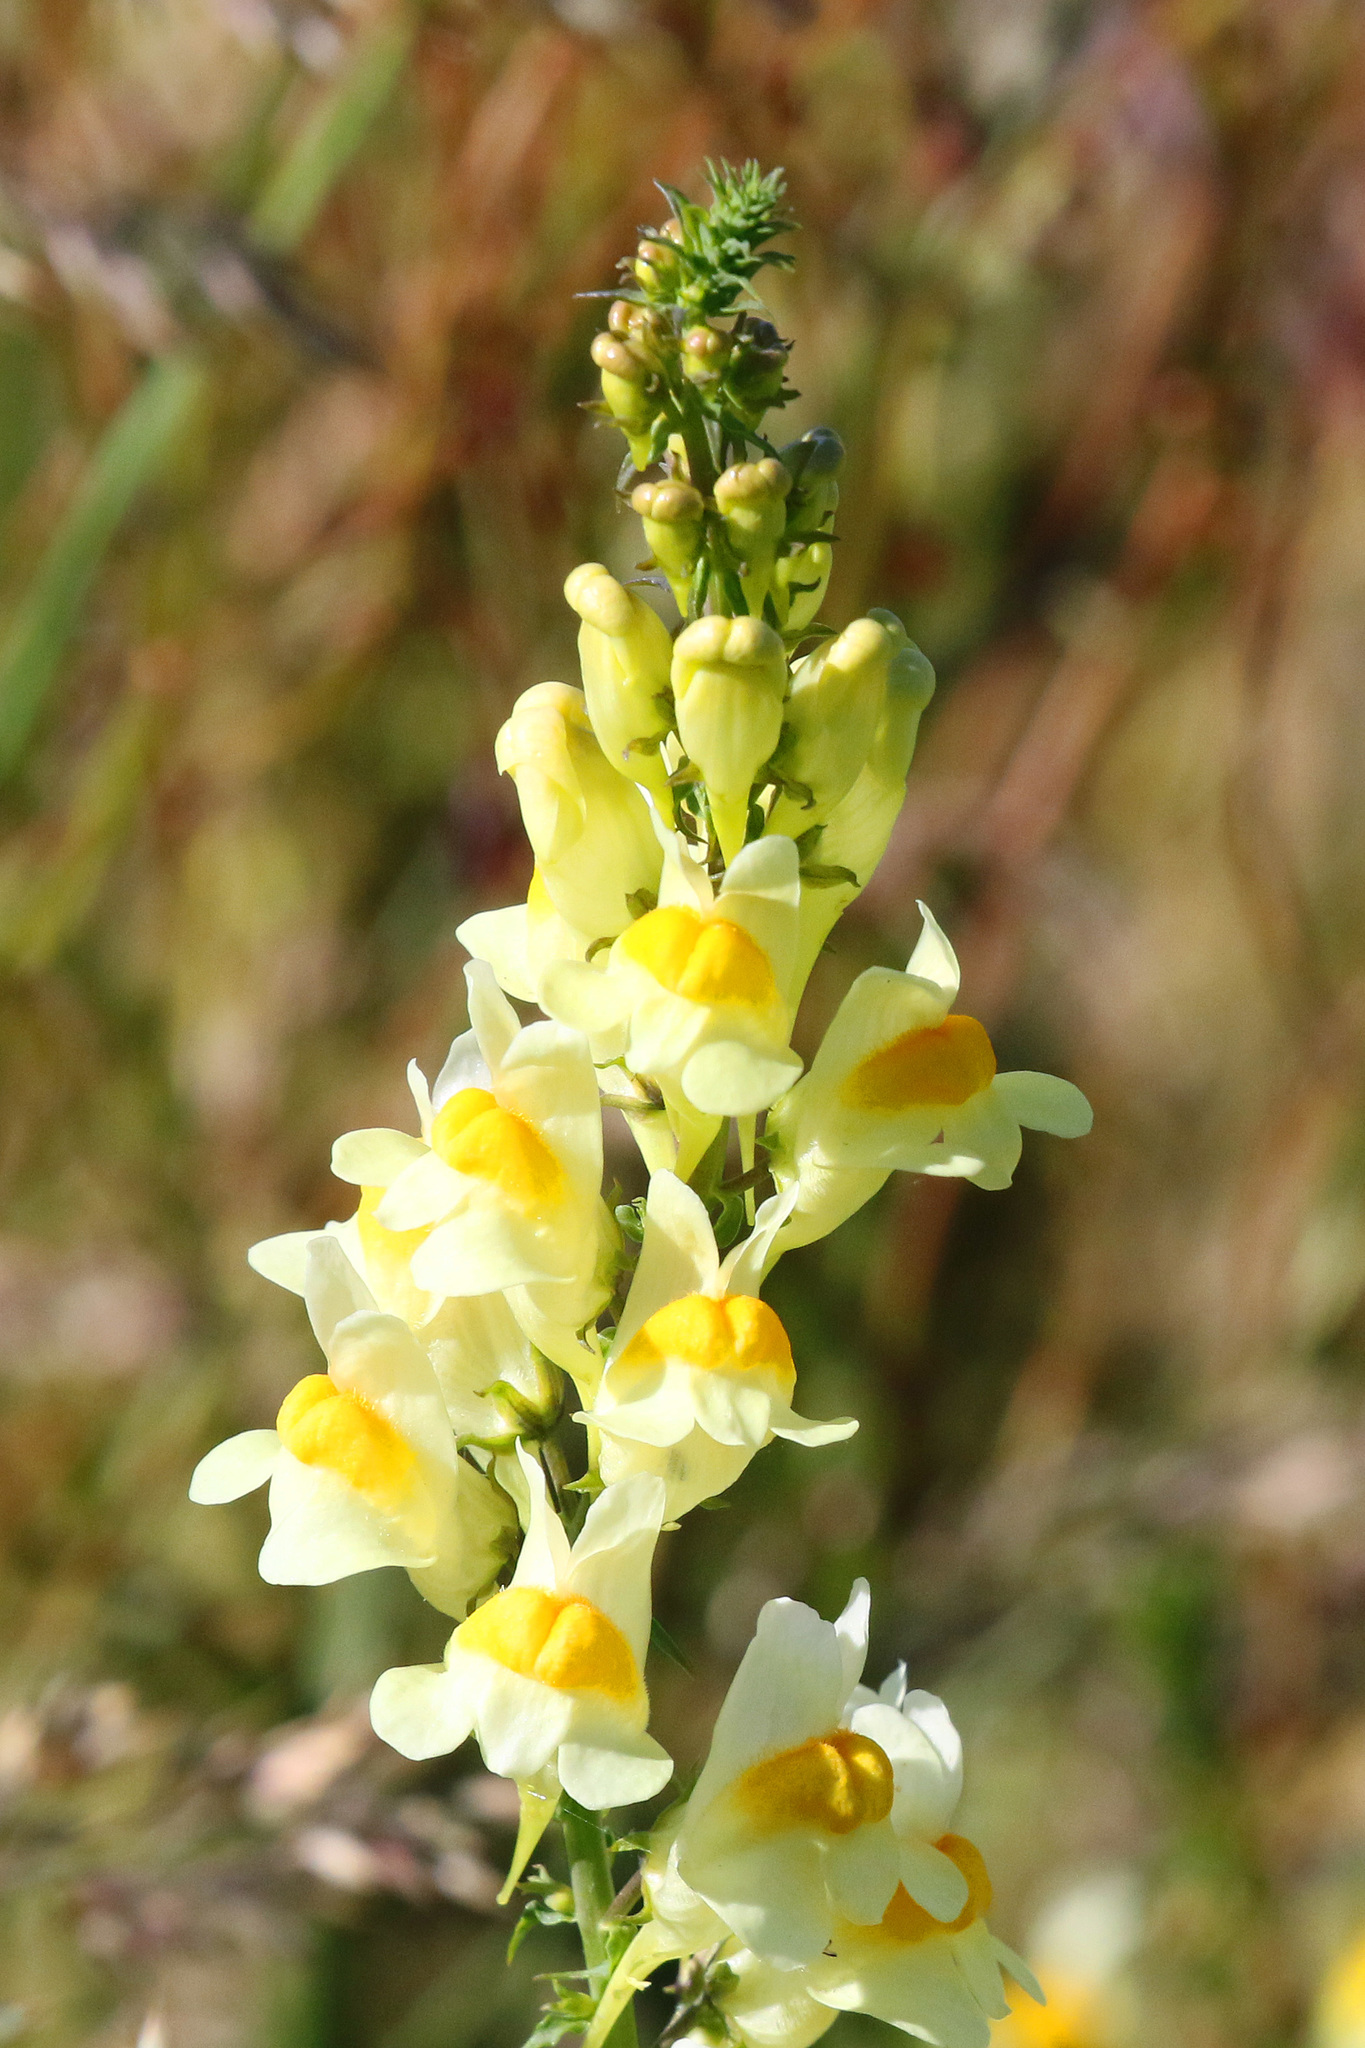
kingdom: Plantae
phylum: Tracheophyta
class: Magnoliopsida
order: Lamiales
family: Plantaginaceae
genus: Linaria
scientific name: Linaria vulgaris
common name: Butter and eggs
